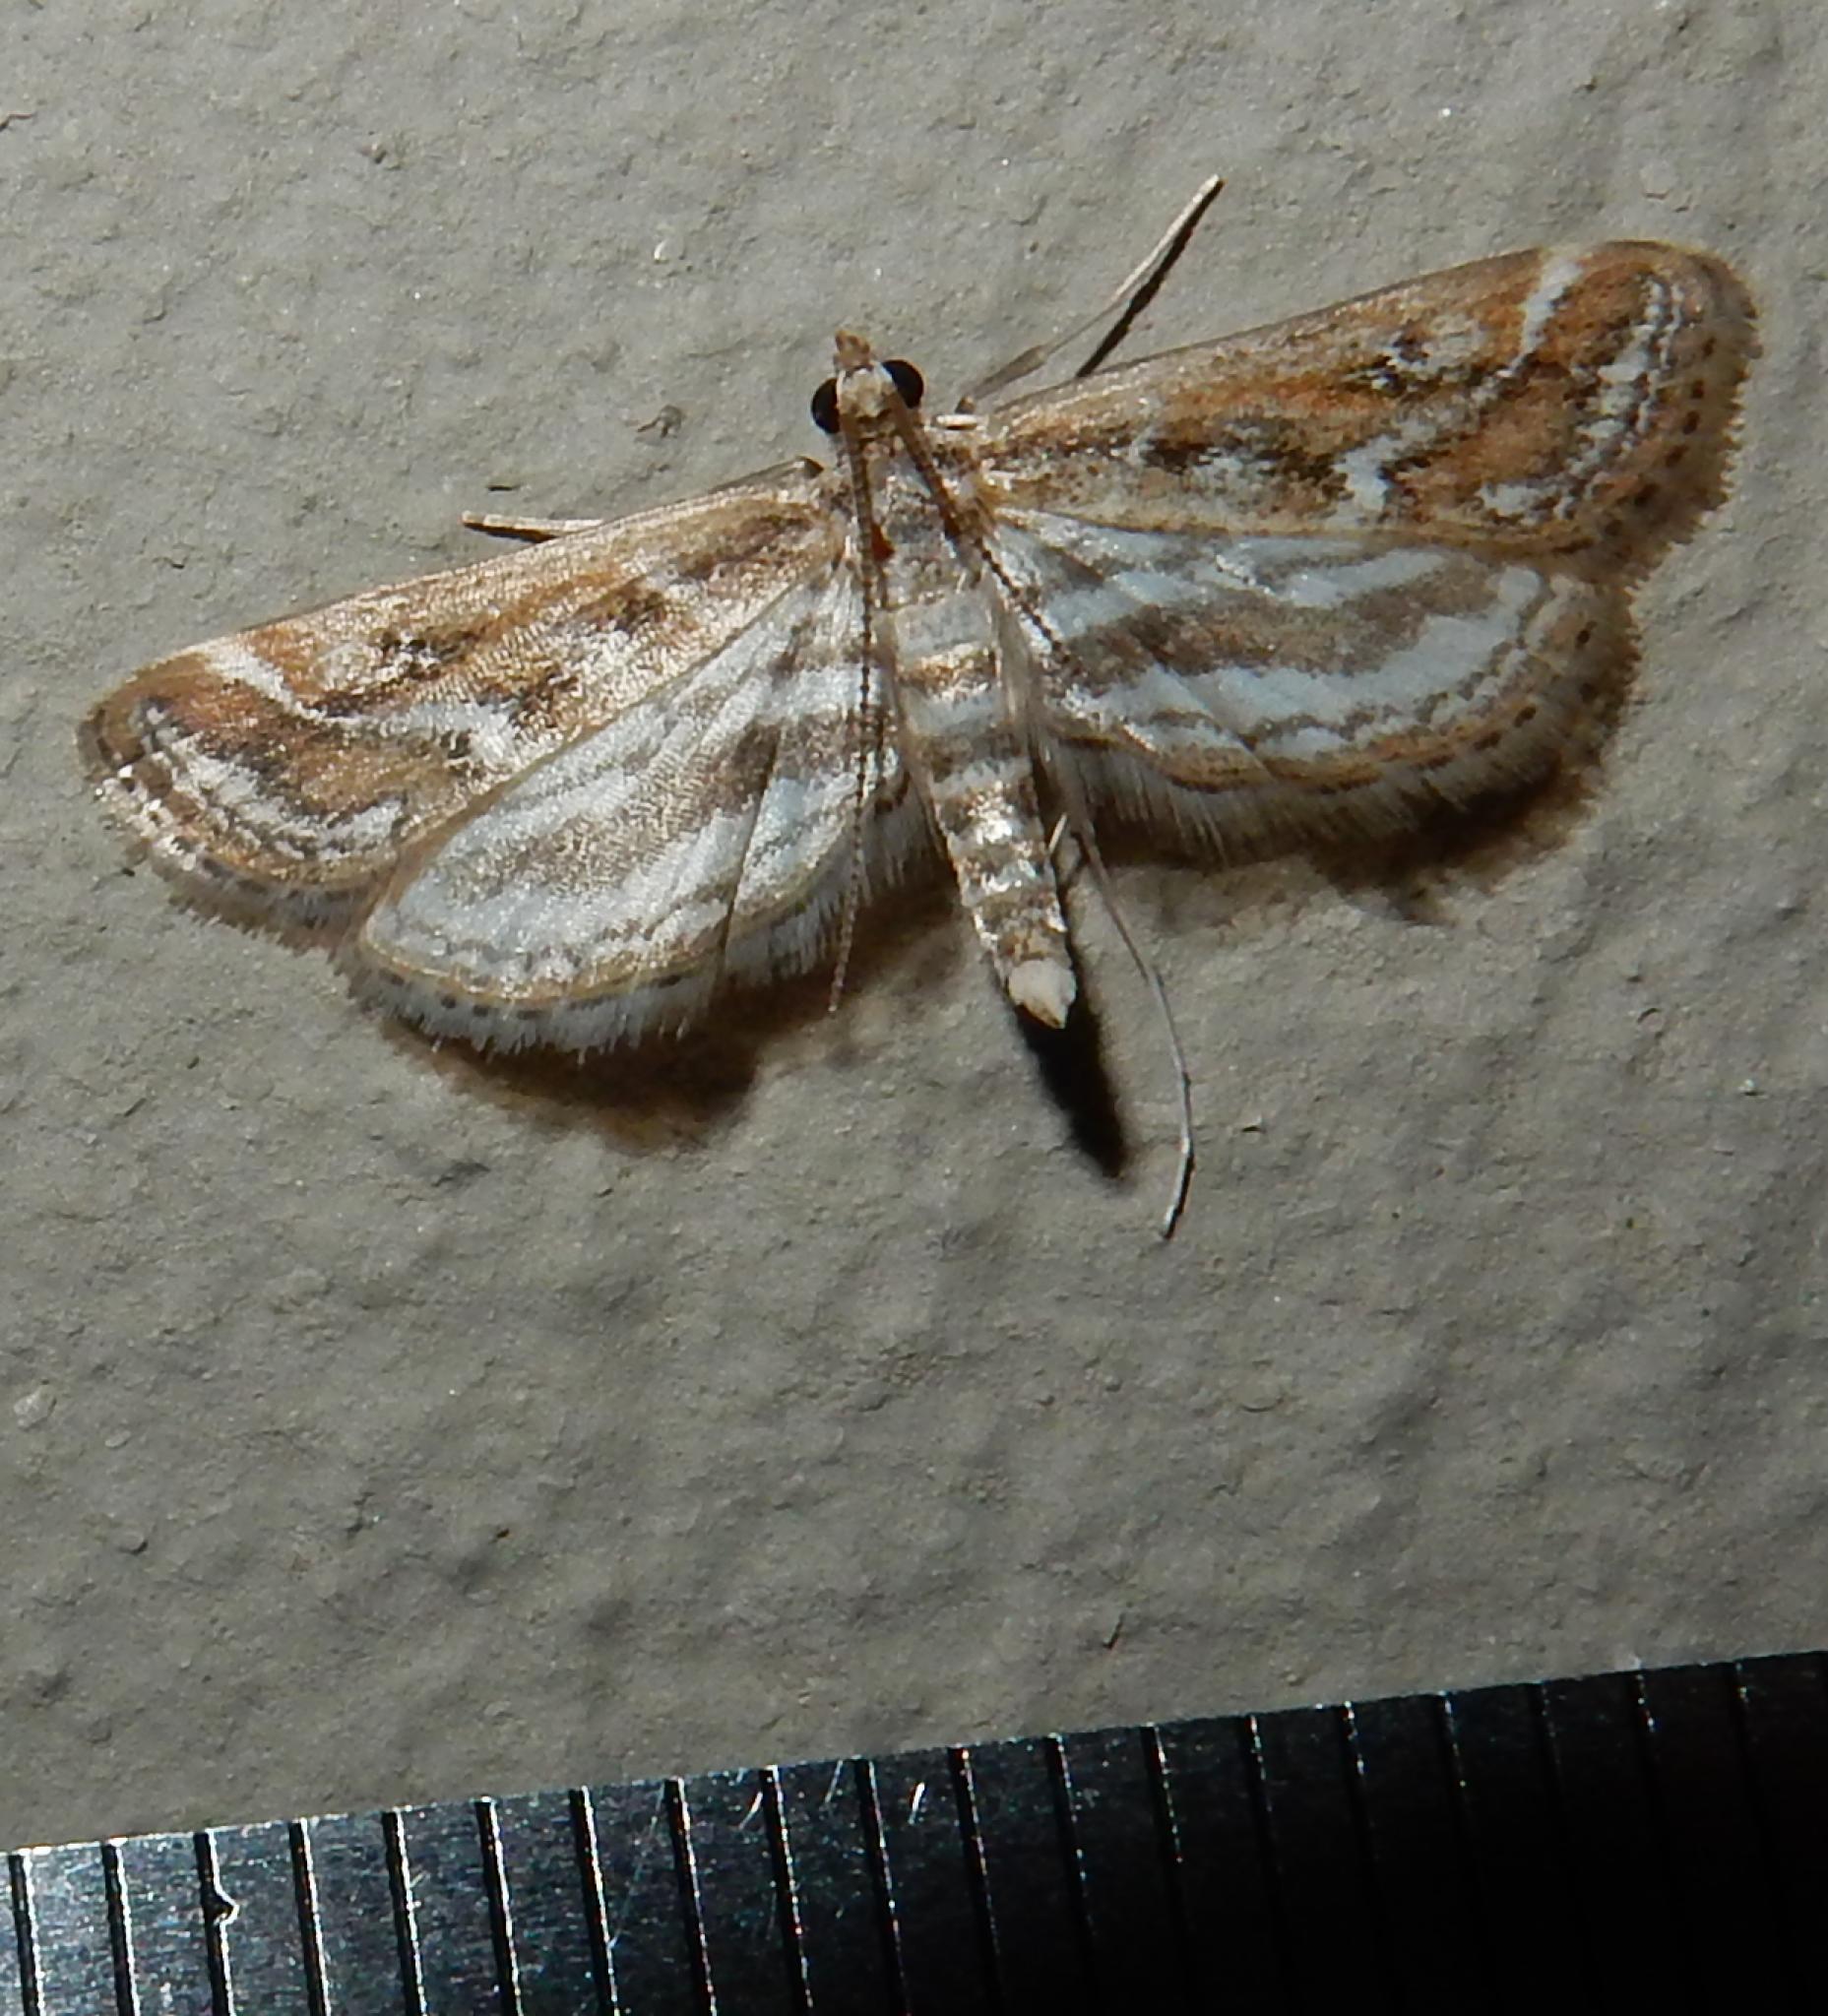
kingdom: Animalia
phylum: Arthropoda
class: Insecta
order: Lepidoptera
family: Crambidae
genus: Parapoynx
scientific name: Parapoynx fluctuosalis
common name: Moth
